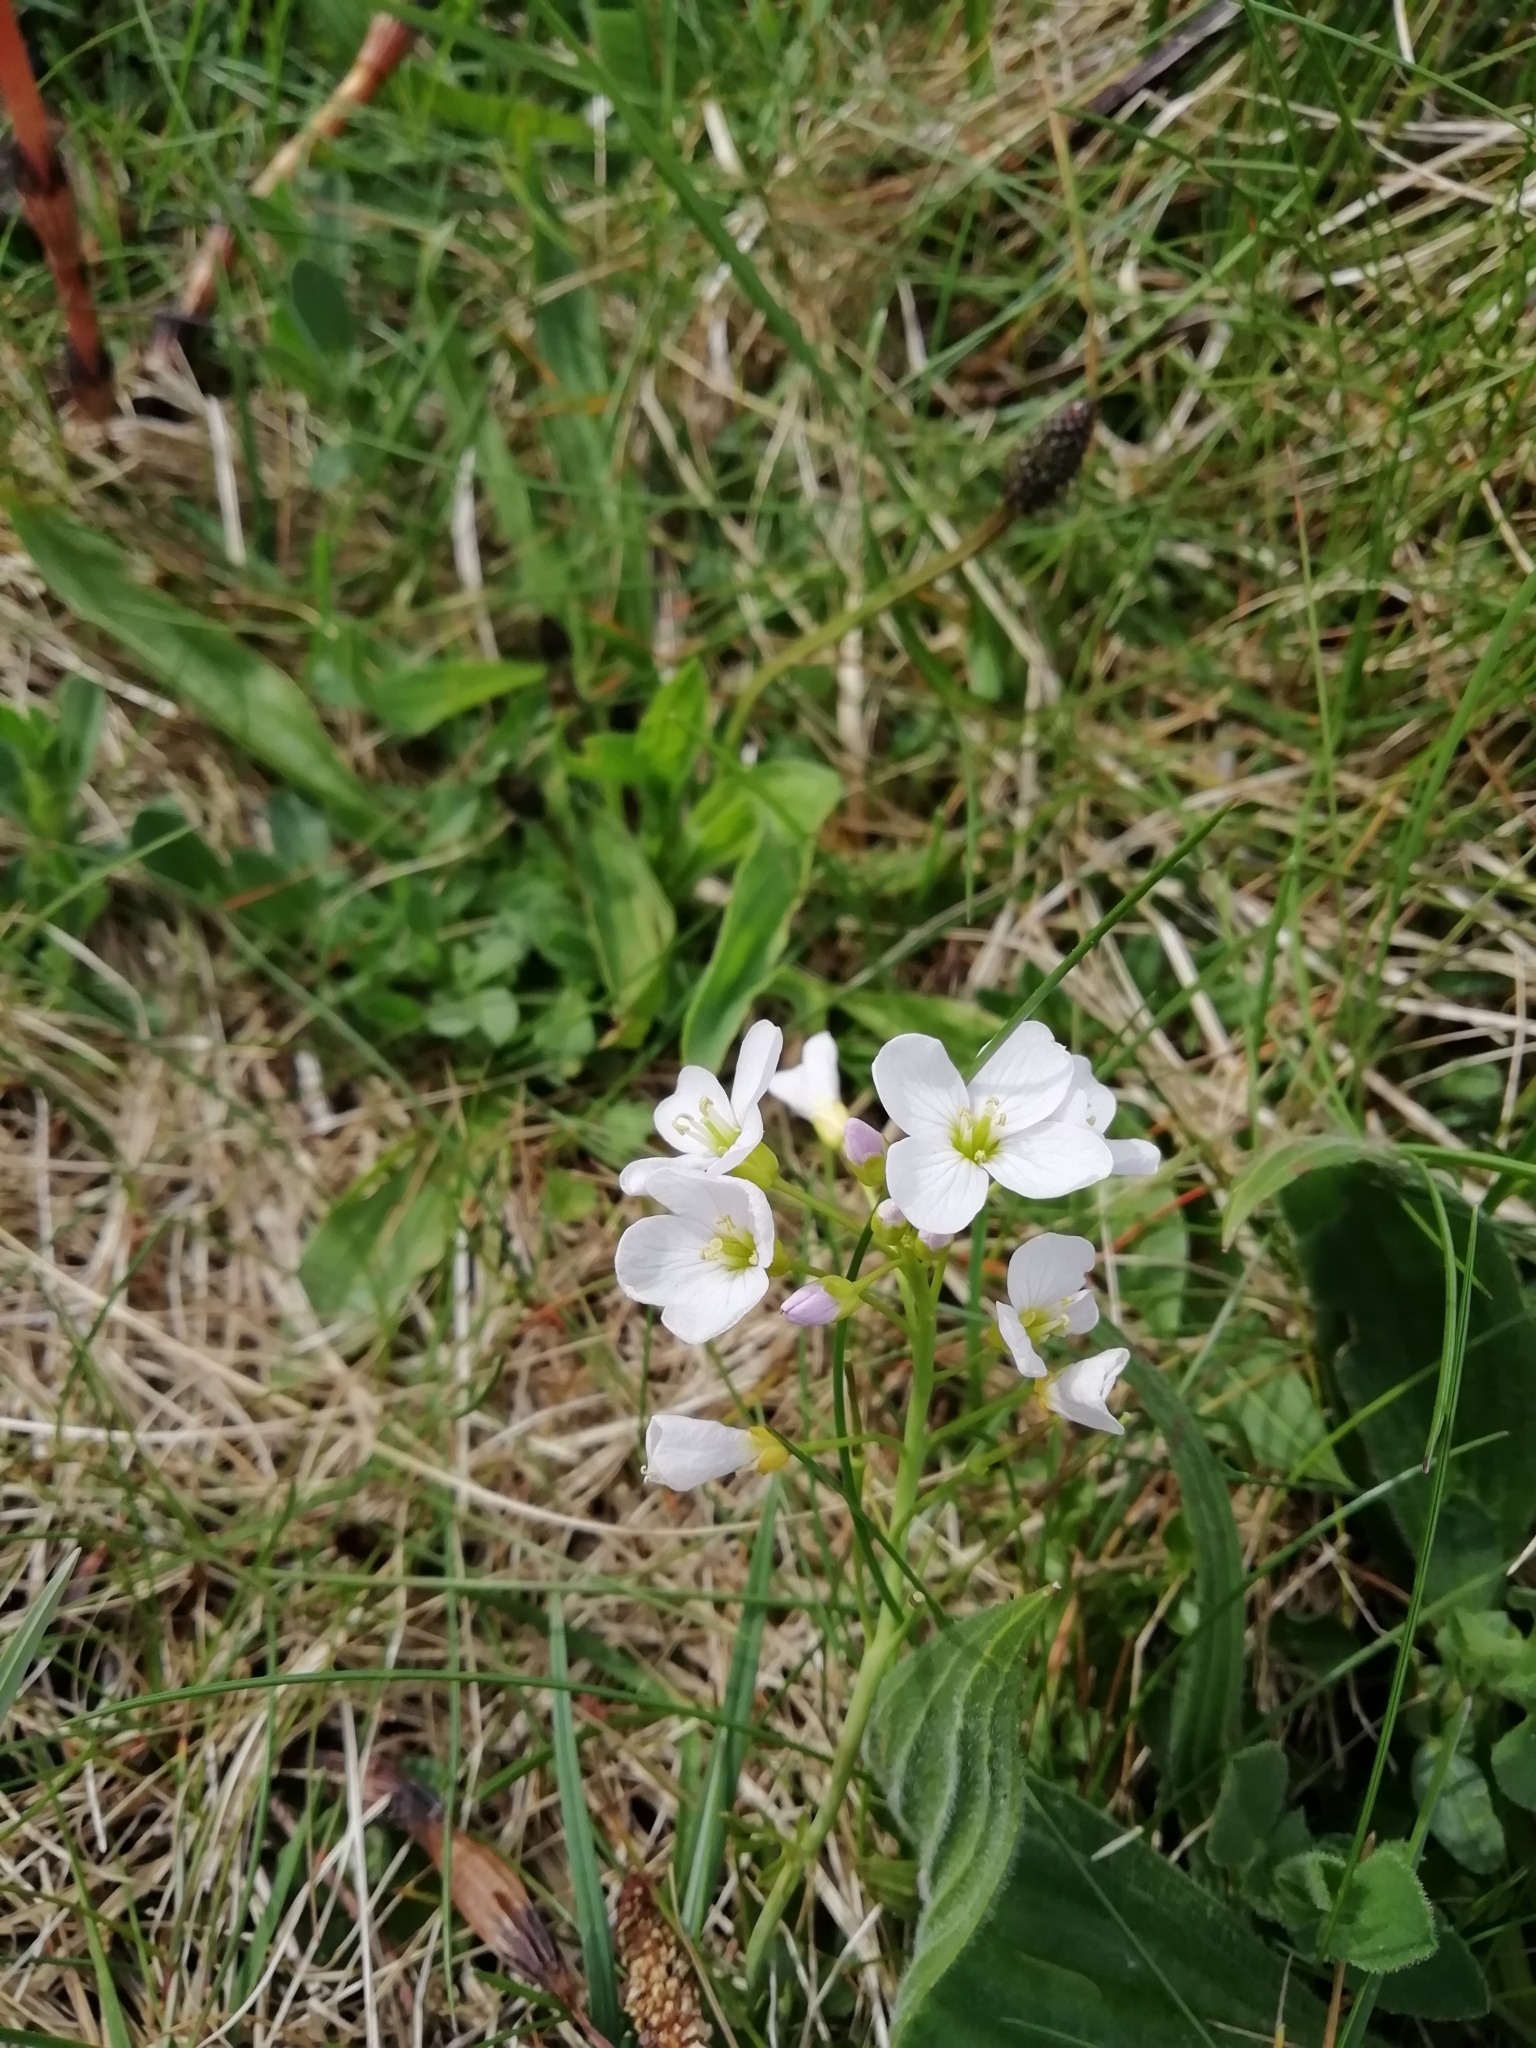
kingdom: Plantae
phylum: Tracheophyta
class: Magnoliopsida
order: Brassicales
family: Brassicaceae
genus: Cardamine
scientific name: Cardamine pratensis
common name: Cuckoo flower
